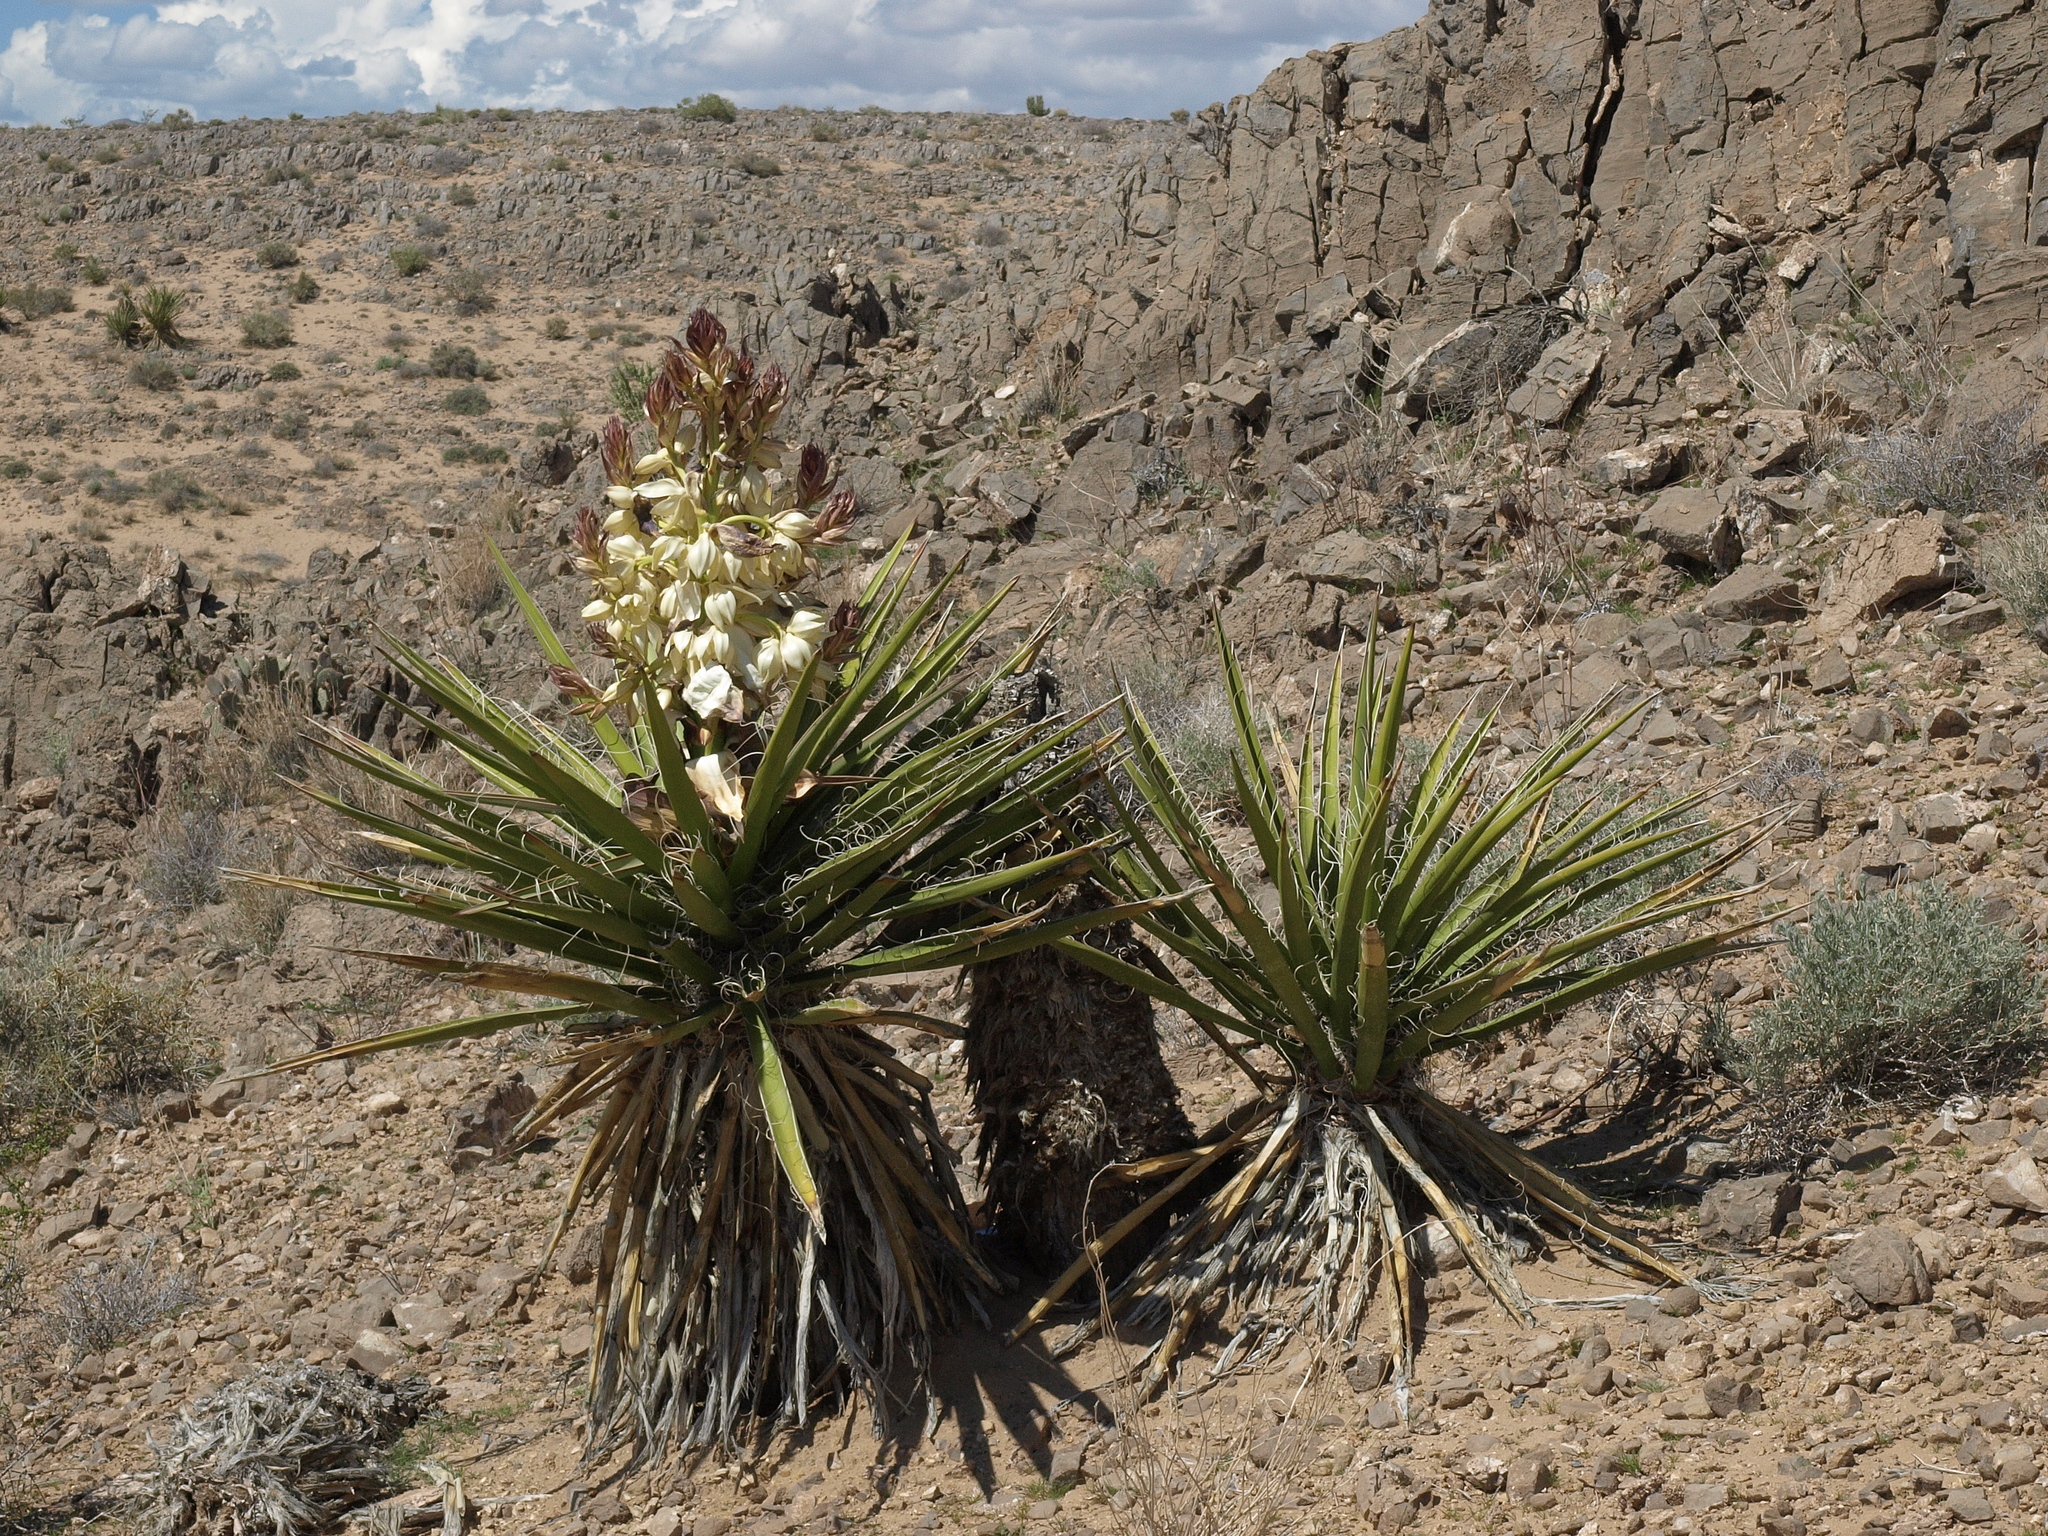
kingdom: Plantae
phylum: Tracheophyta
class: Liliopsida
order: Asparagales
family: Asparagaceae
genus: Yucca
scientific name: Yucca schidigera
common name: Mojave yucca
